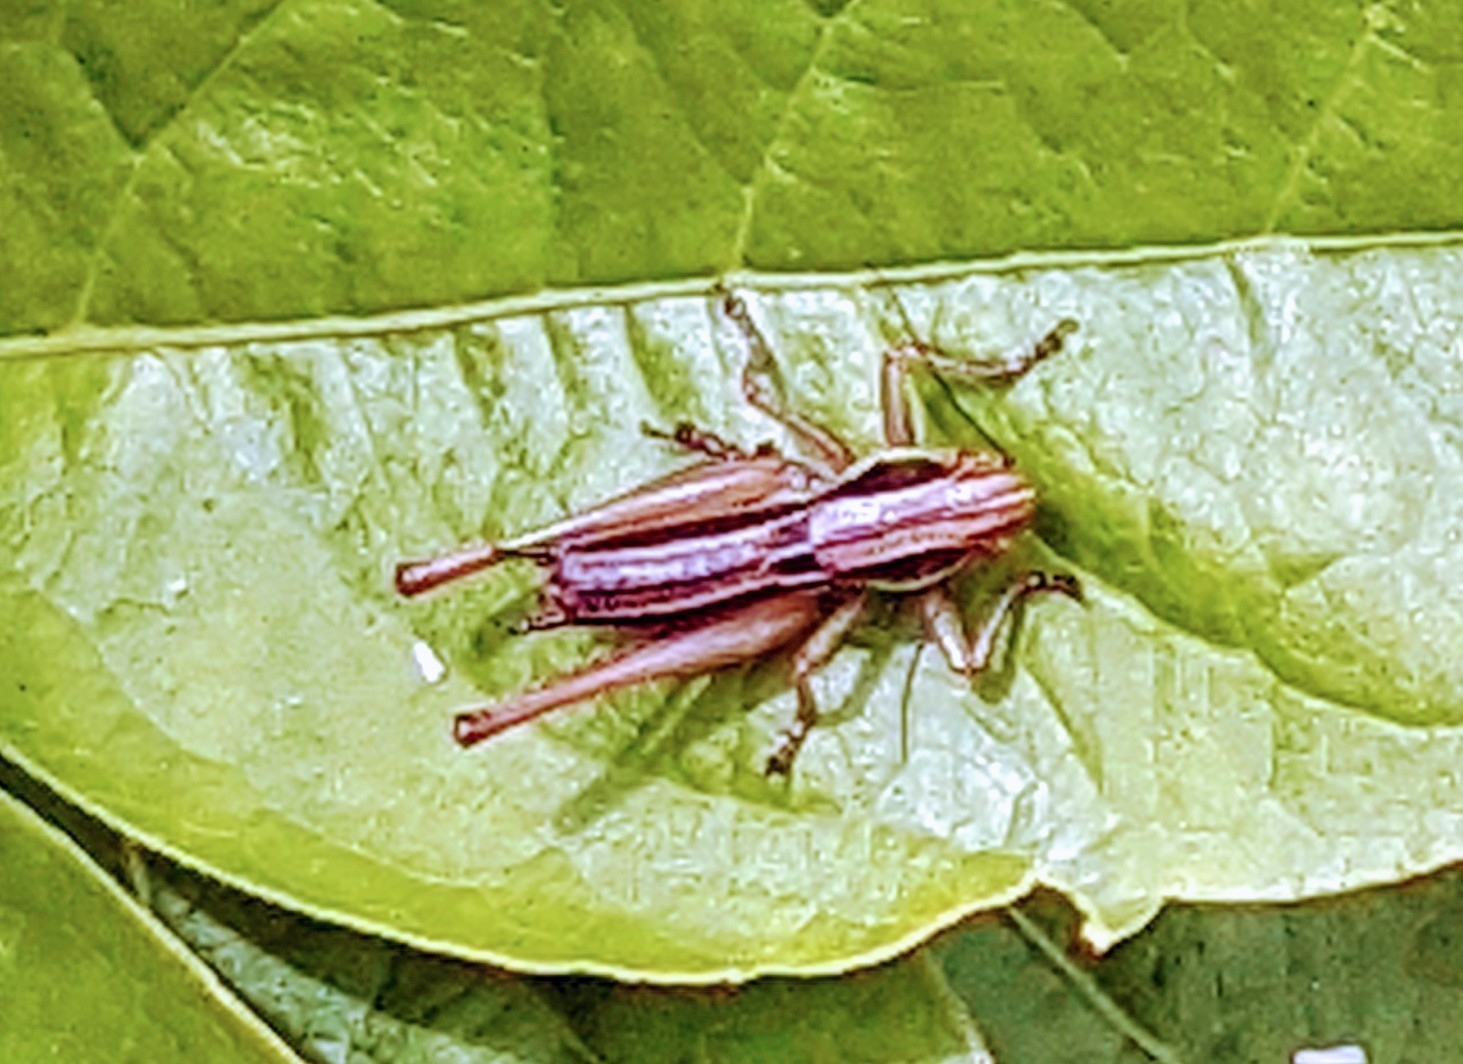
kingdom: Animalia
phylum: Arthropoda
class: Insecta
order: Orthoptera
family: Tettigoniidae
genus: Roeseliana
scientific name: Roeseliana roeselii
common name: Roesel's bush cricket
